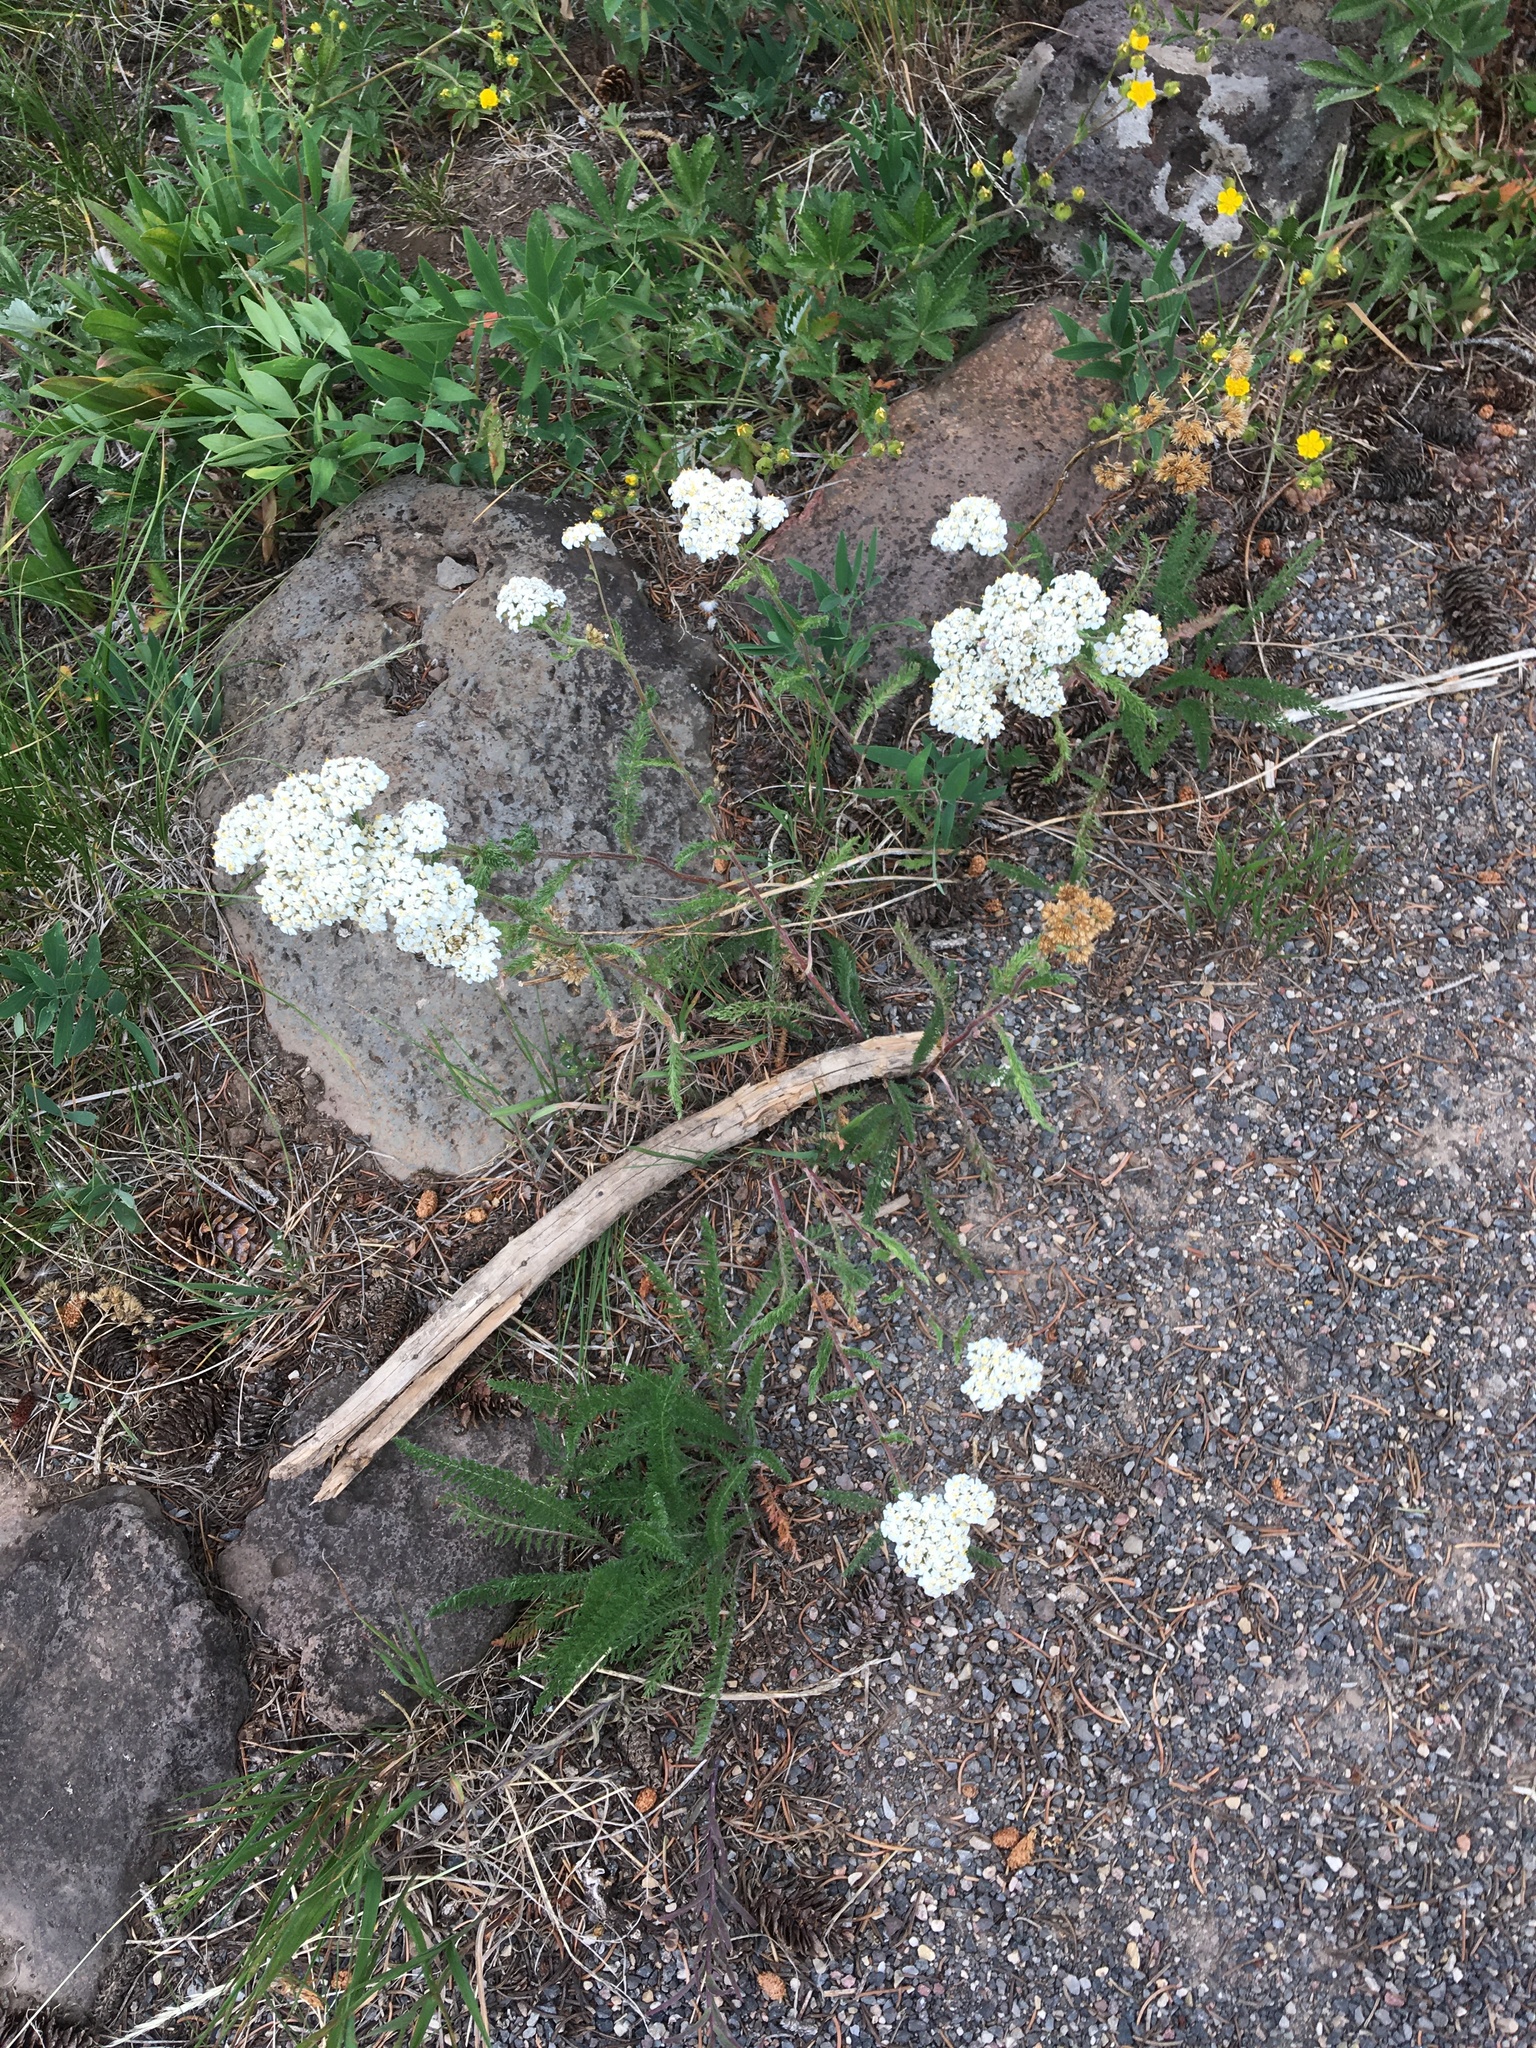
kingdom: Plantae
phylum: Tracheophyta
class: Magnoliopsida
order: Asterales
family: Asteraceae
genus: Achillea
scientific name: Achillea millefolium
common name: Yarrow
